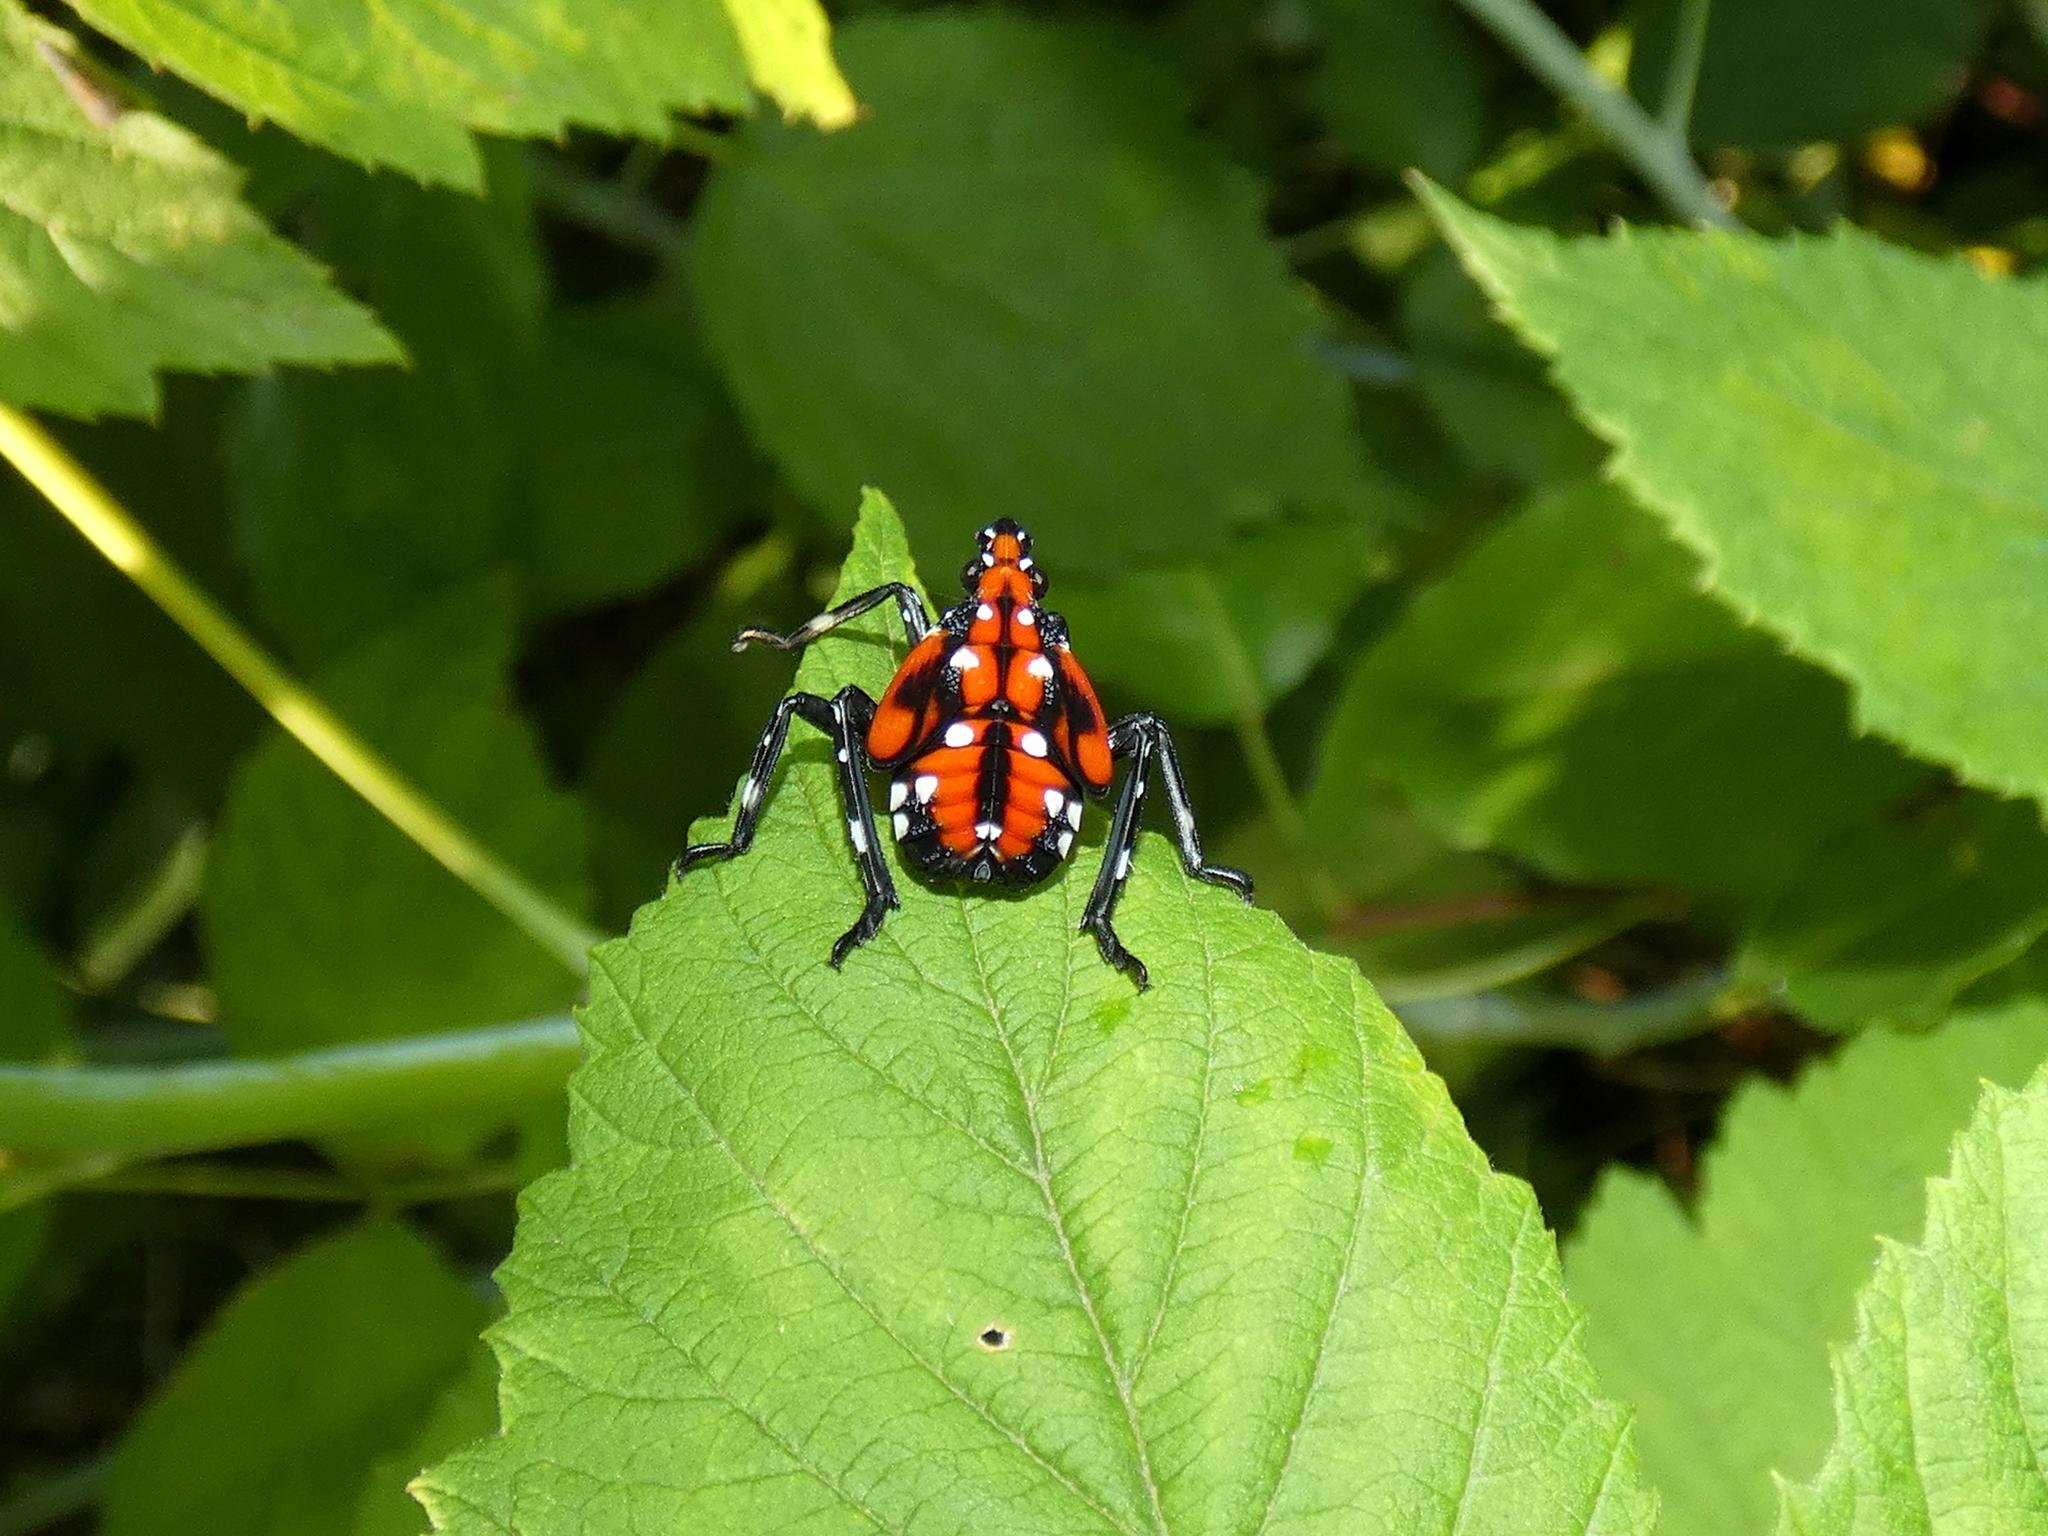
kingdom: Animalia
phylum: Arthropoda
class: Insecta
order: Hemiptera
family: Fulgoridae
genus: Lycorma
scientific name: Lycorma delicatula
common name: Spotted lanternfly
